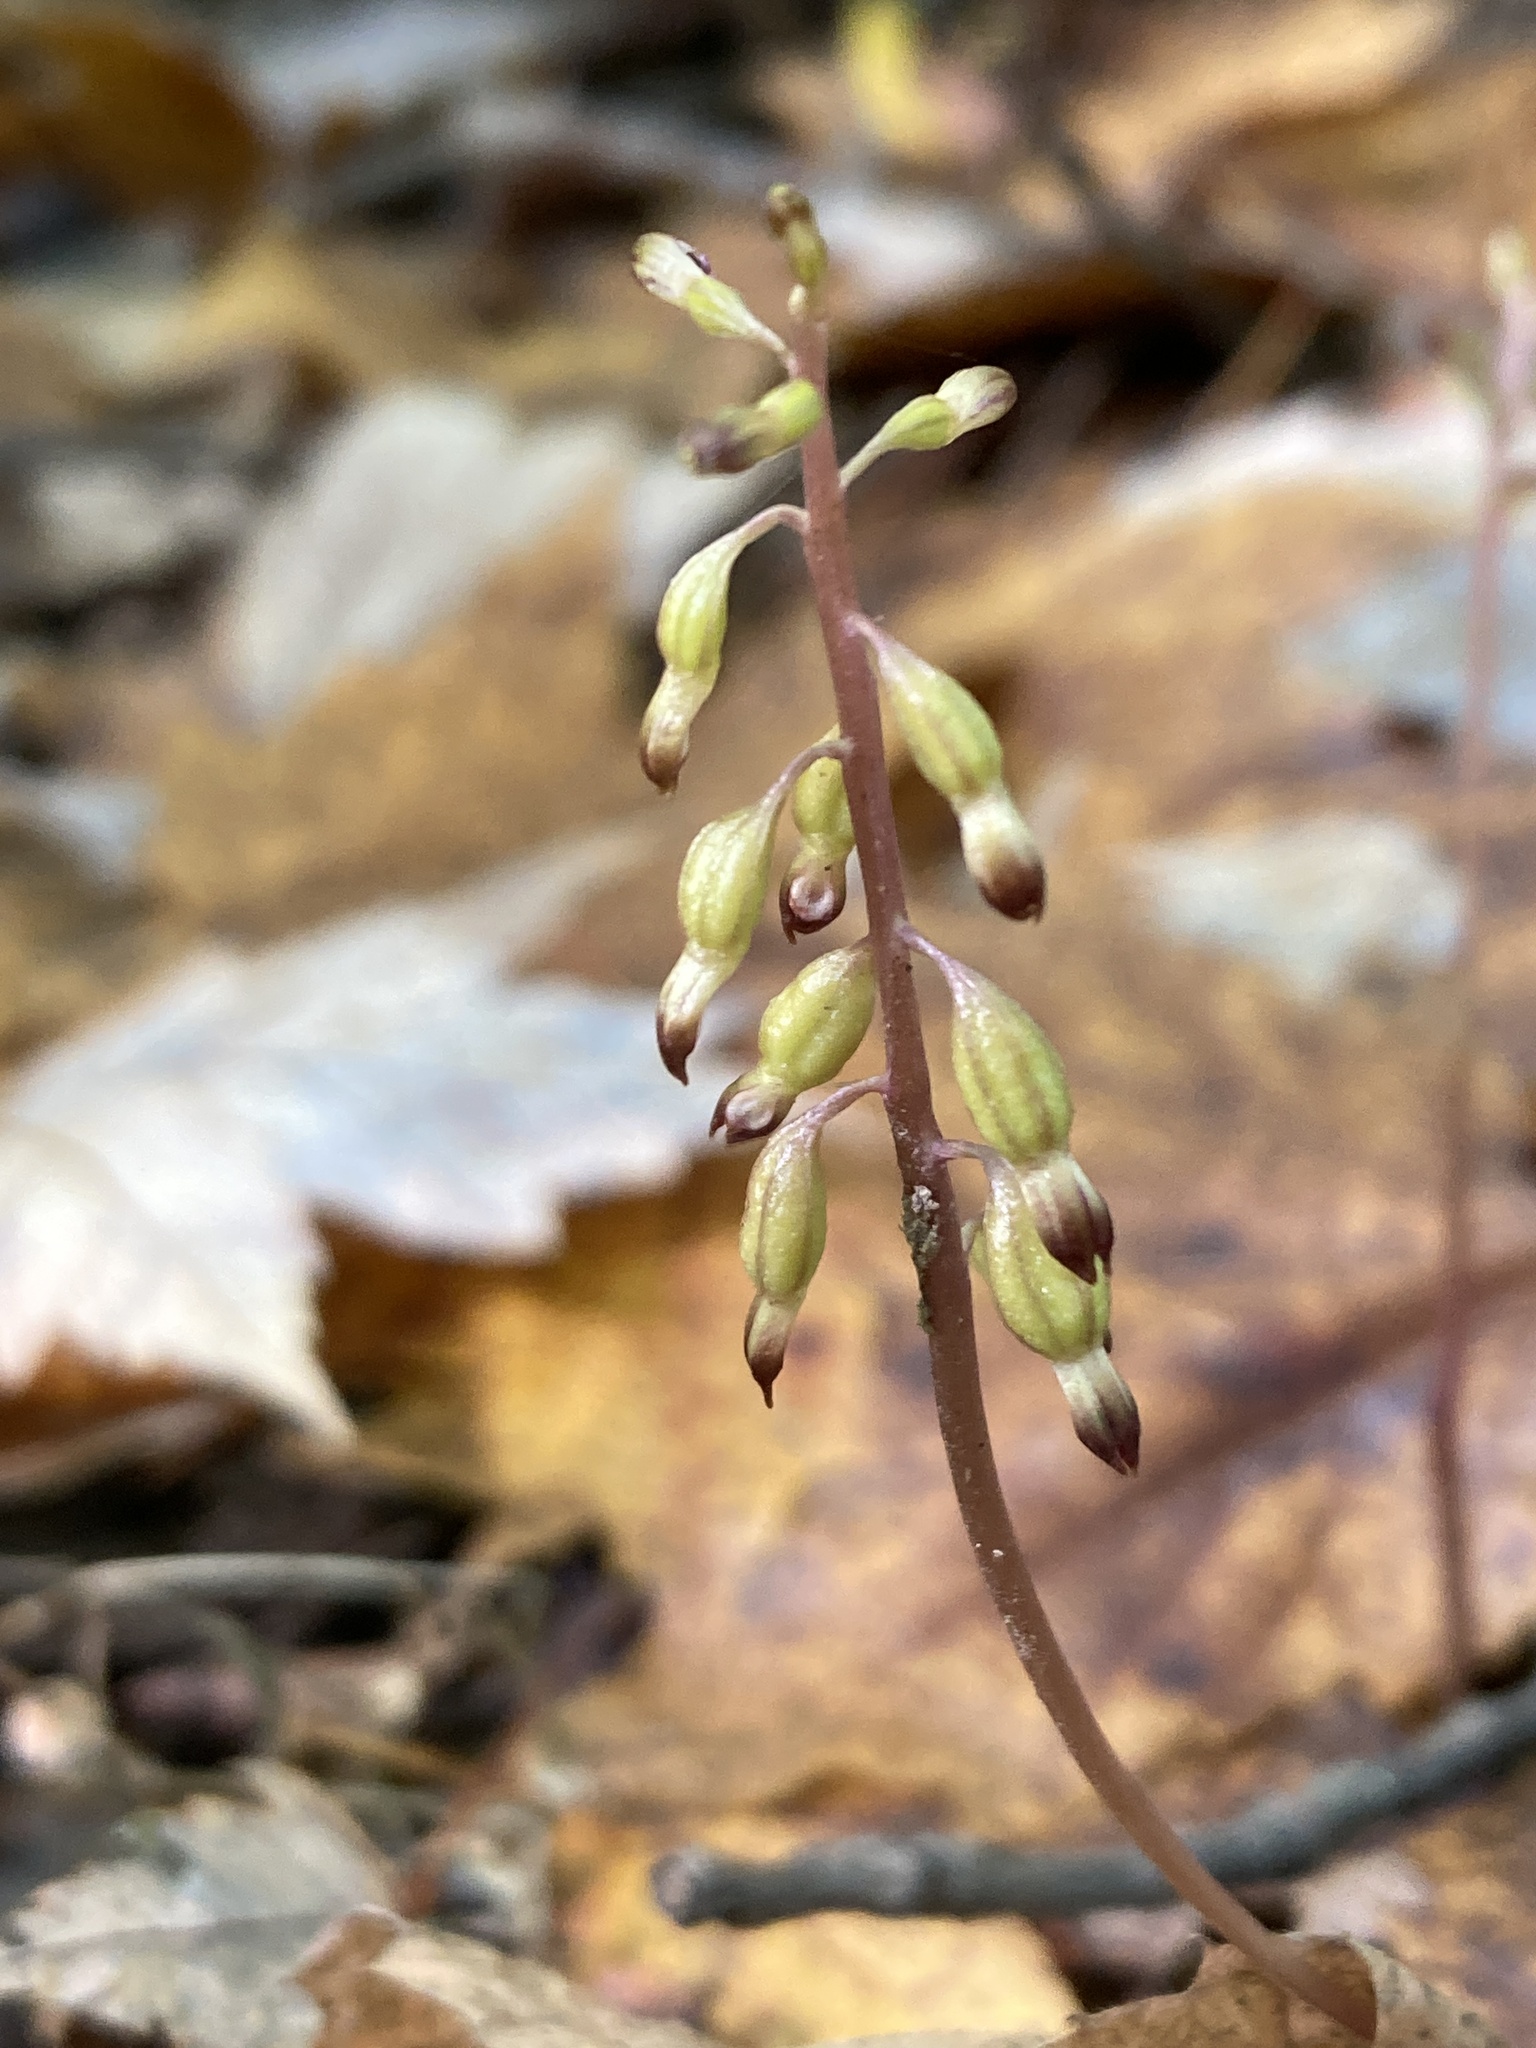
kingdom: Plantae
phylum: Tracheophyta
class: Liliopsida
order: Asparagales
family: Orchidaceae
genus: Corallorhiza
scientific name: Corallorhiza odontorhiza
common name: Autumn coralroot
